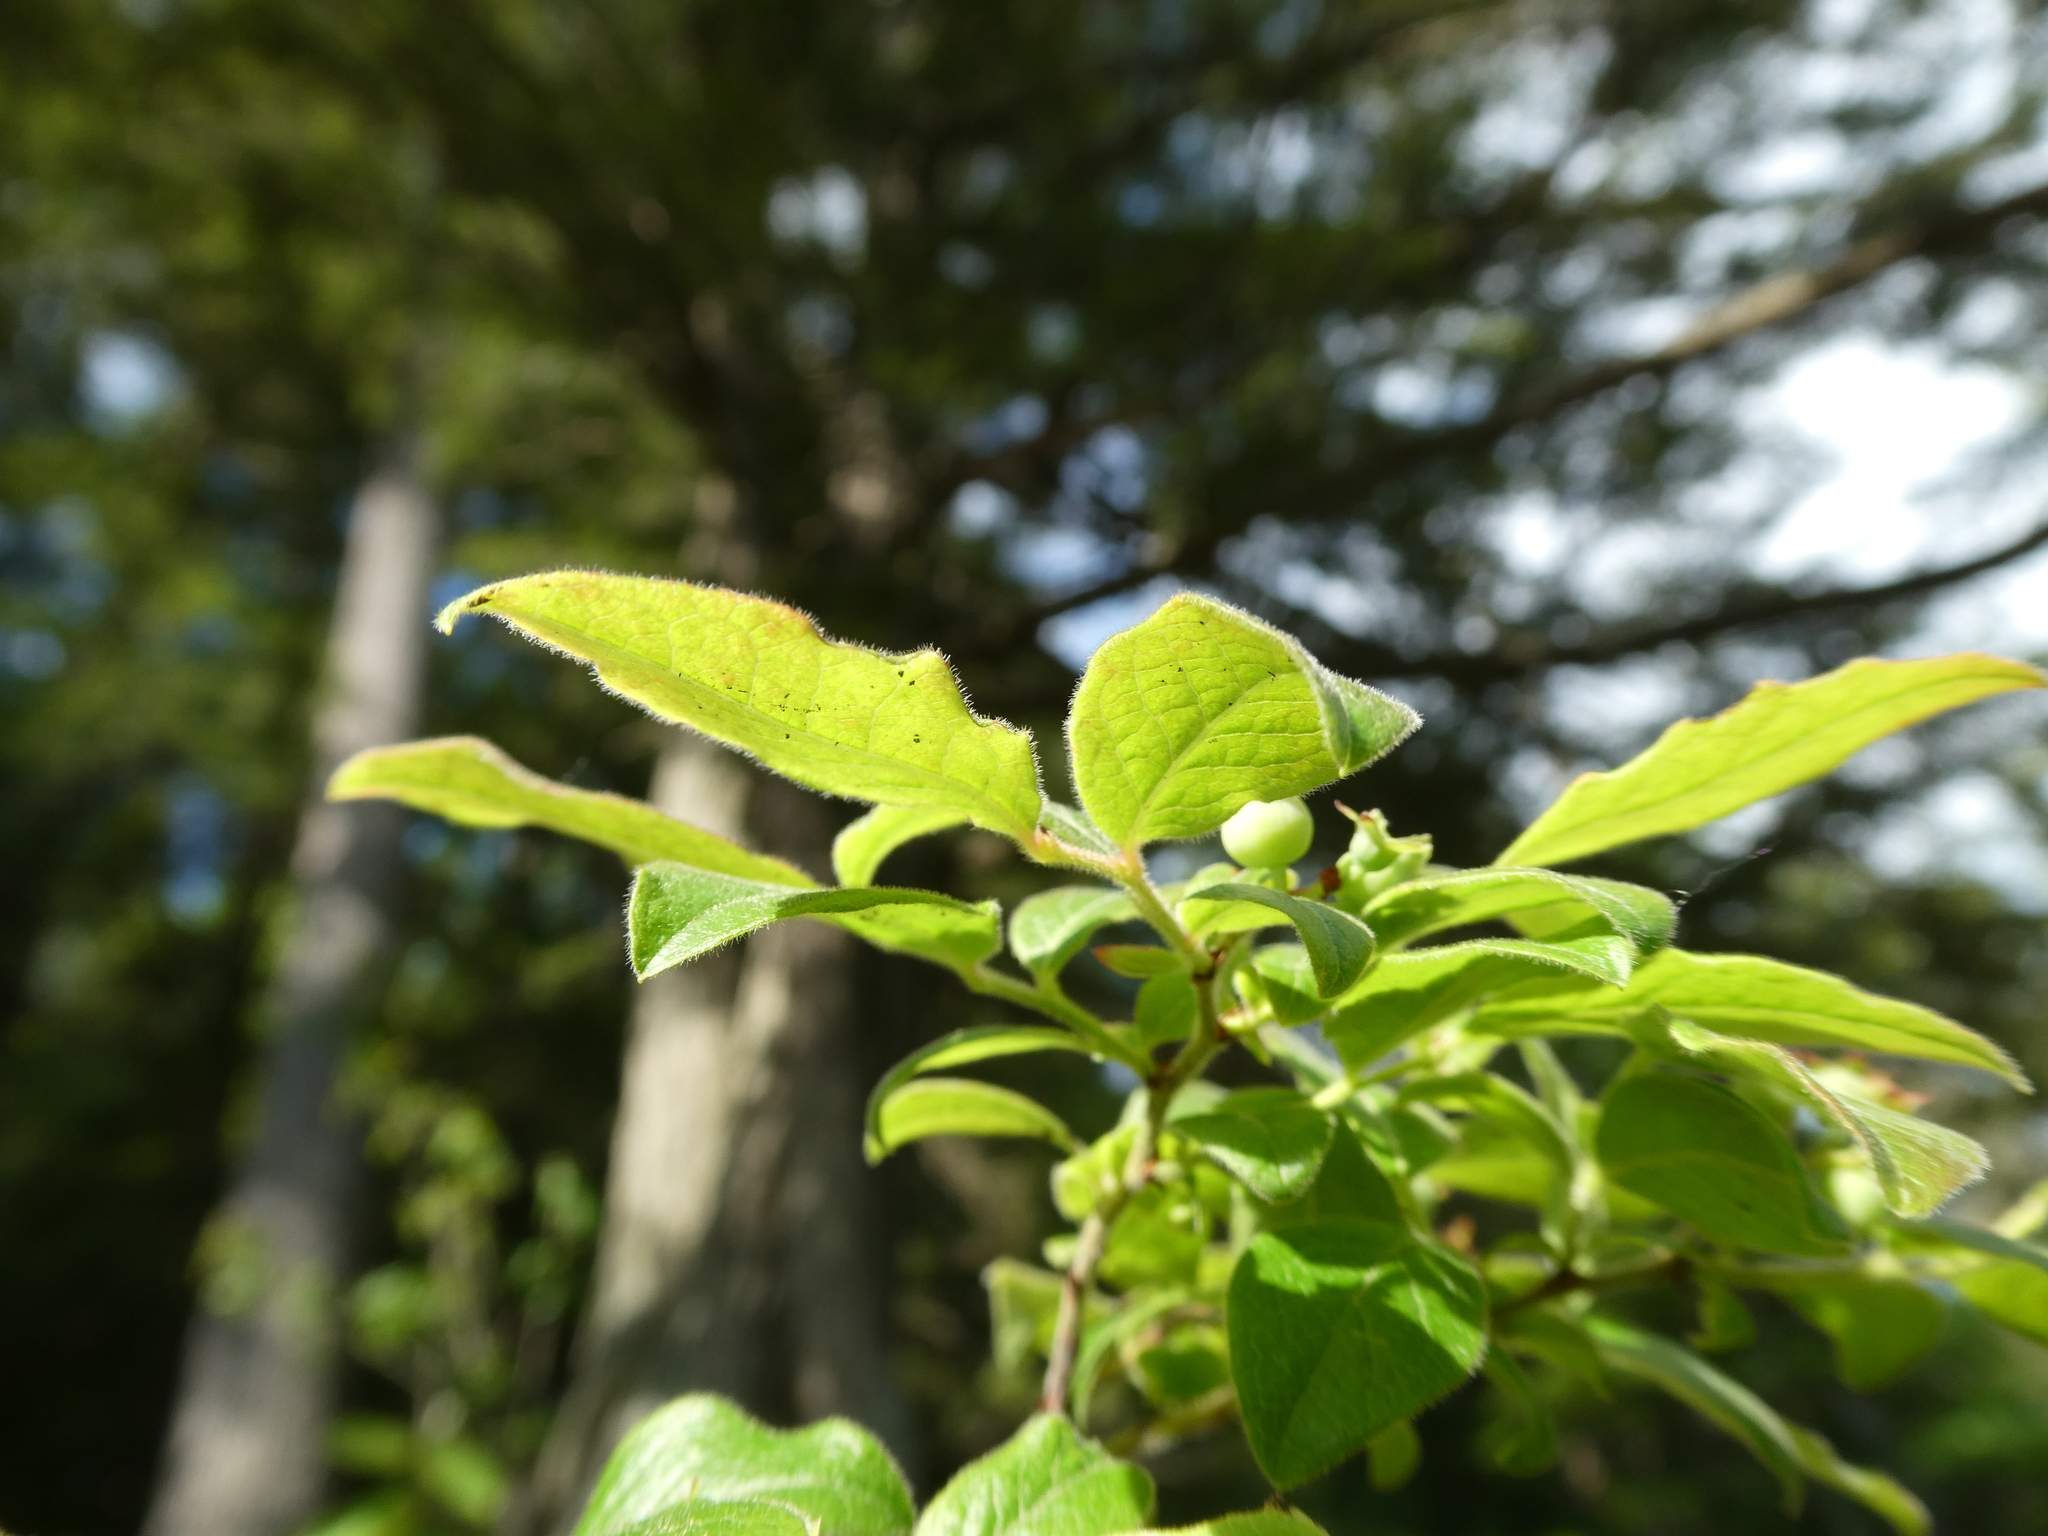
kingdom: Plantae
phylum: Tracheophyta
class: Magnoliopsida
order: Ericales
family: Ericaceae
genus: Vaccinium
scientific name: Vaccinium myrtilloides
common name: Canada blueberry
